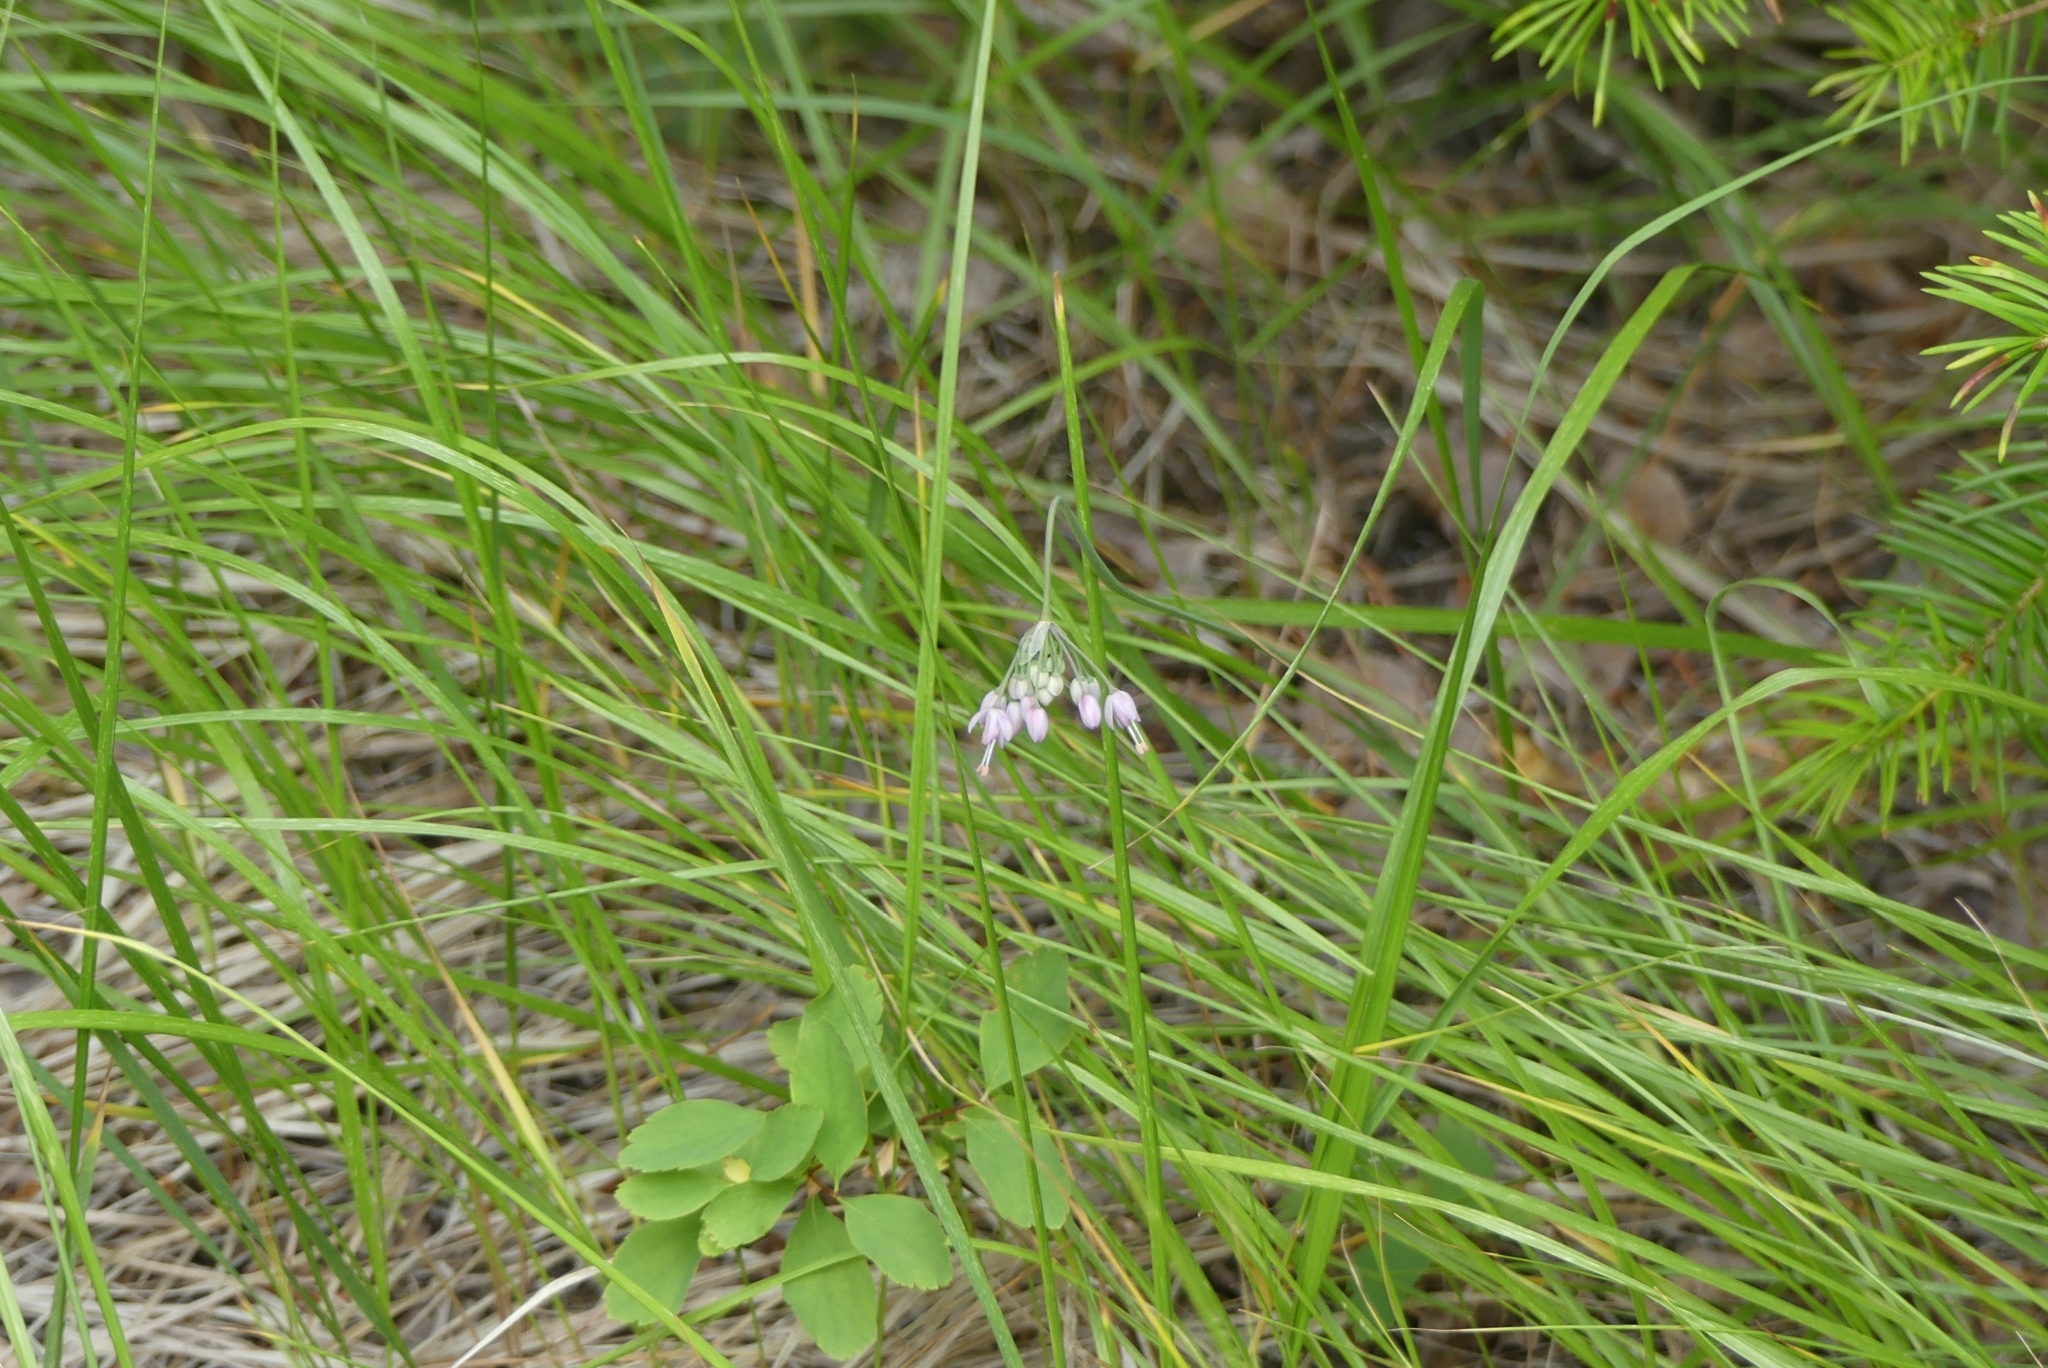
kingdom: Plantae
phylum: Tracheophyta
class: Liliopsida
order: Asparagales
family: Amaryllidaceae
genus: Allium
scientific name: Allium cernuum
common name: Nodding onion
